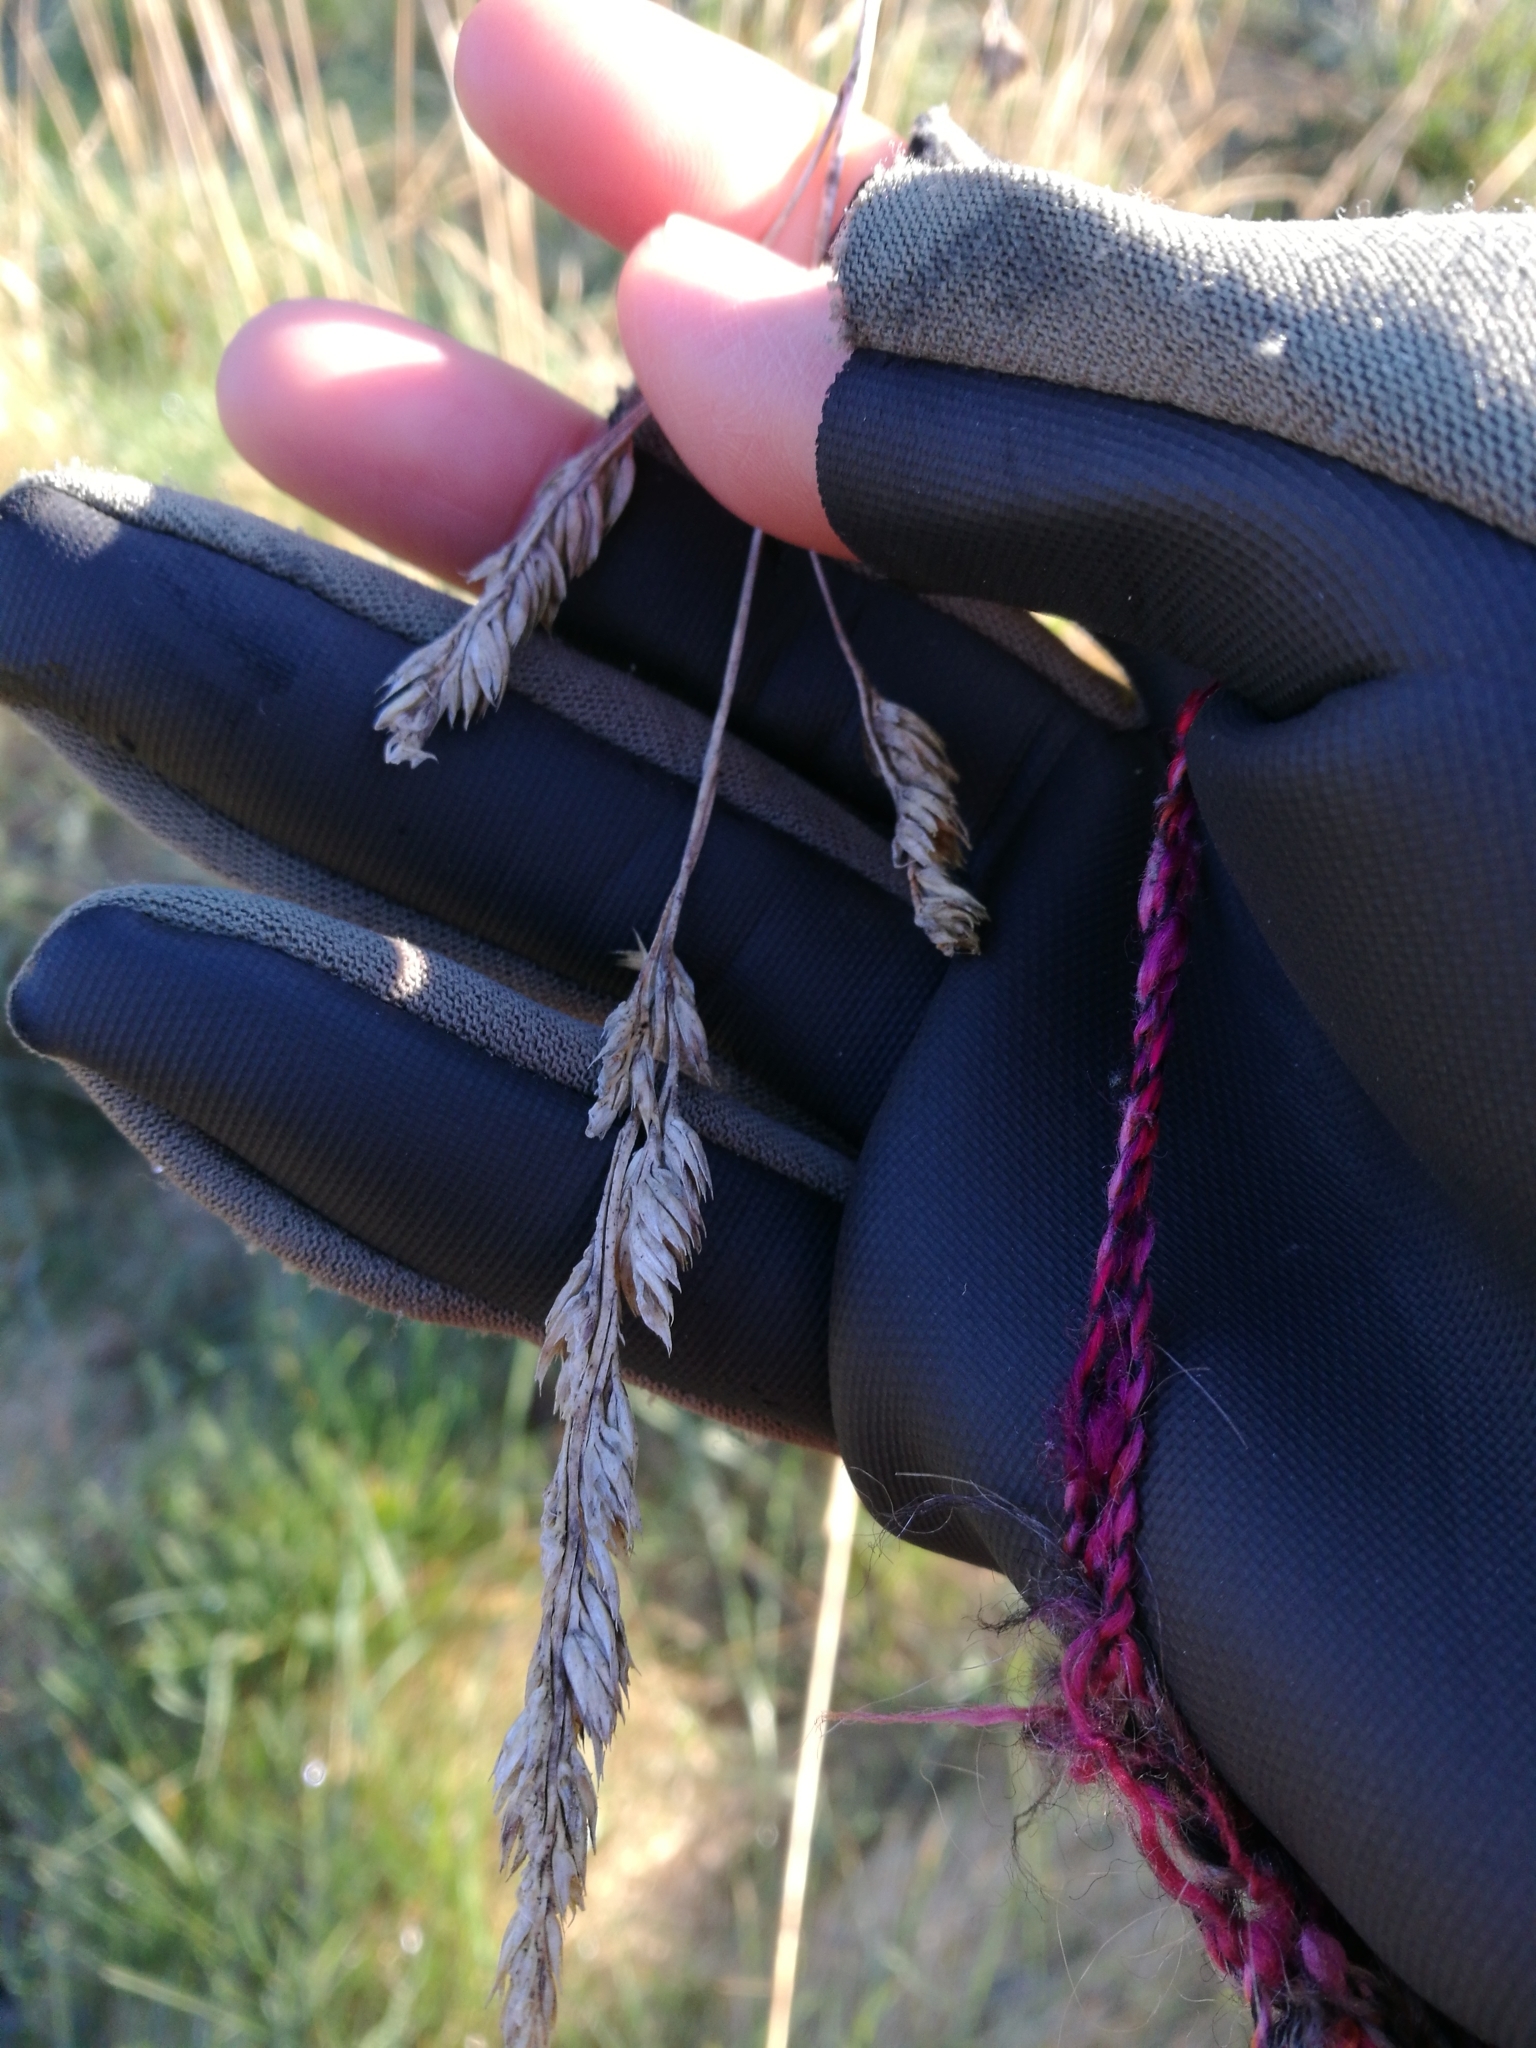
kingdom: Plantae
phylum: Tracheophyta
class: Liliopsida
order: Poales
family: Poaceae
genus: Dactylis
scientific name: Dactylis glomerata
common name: Orchardgrass
